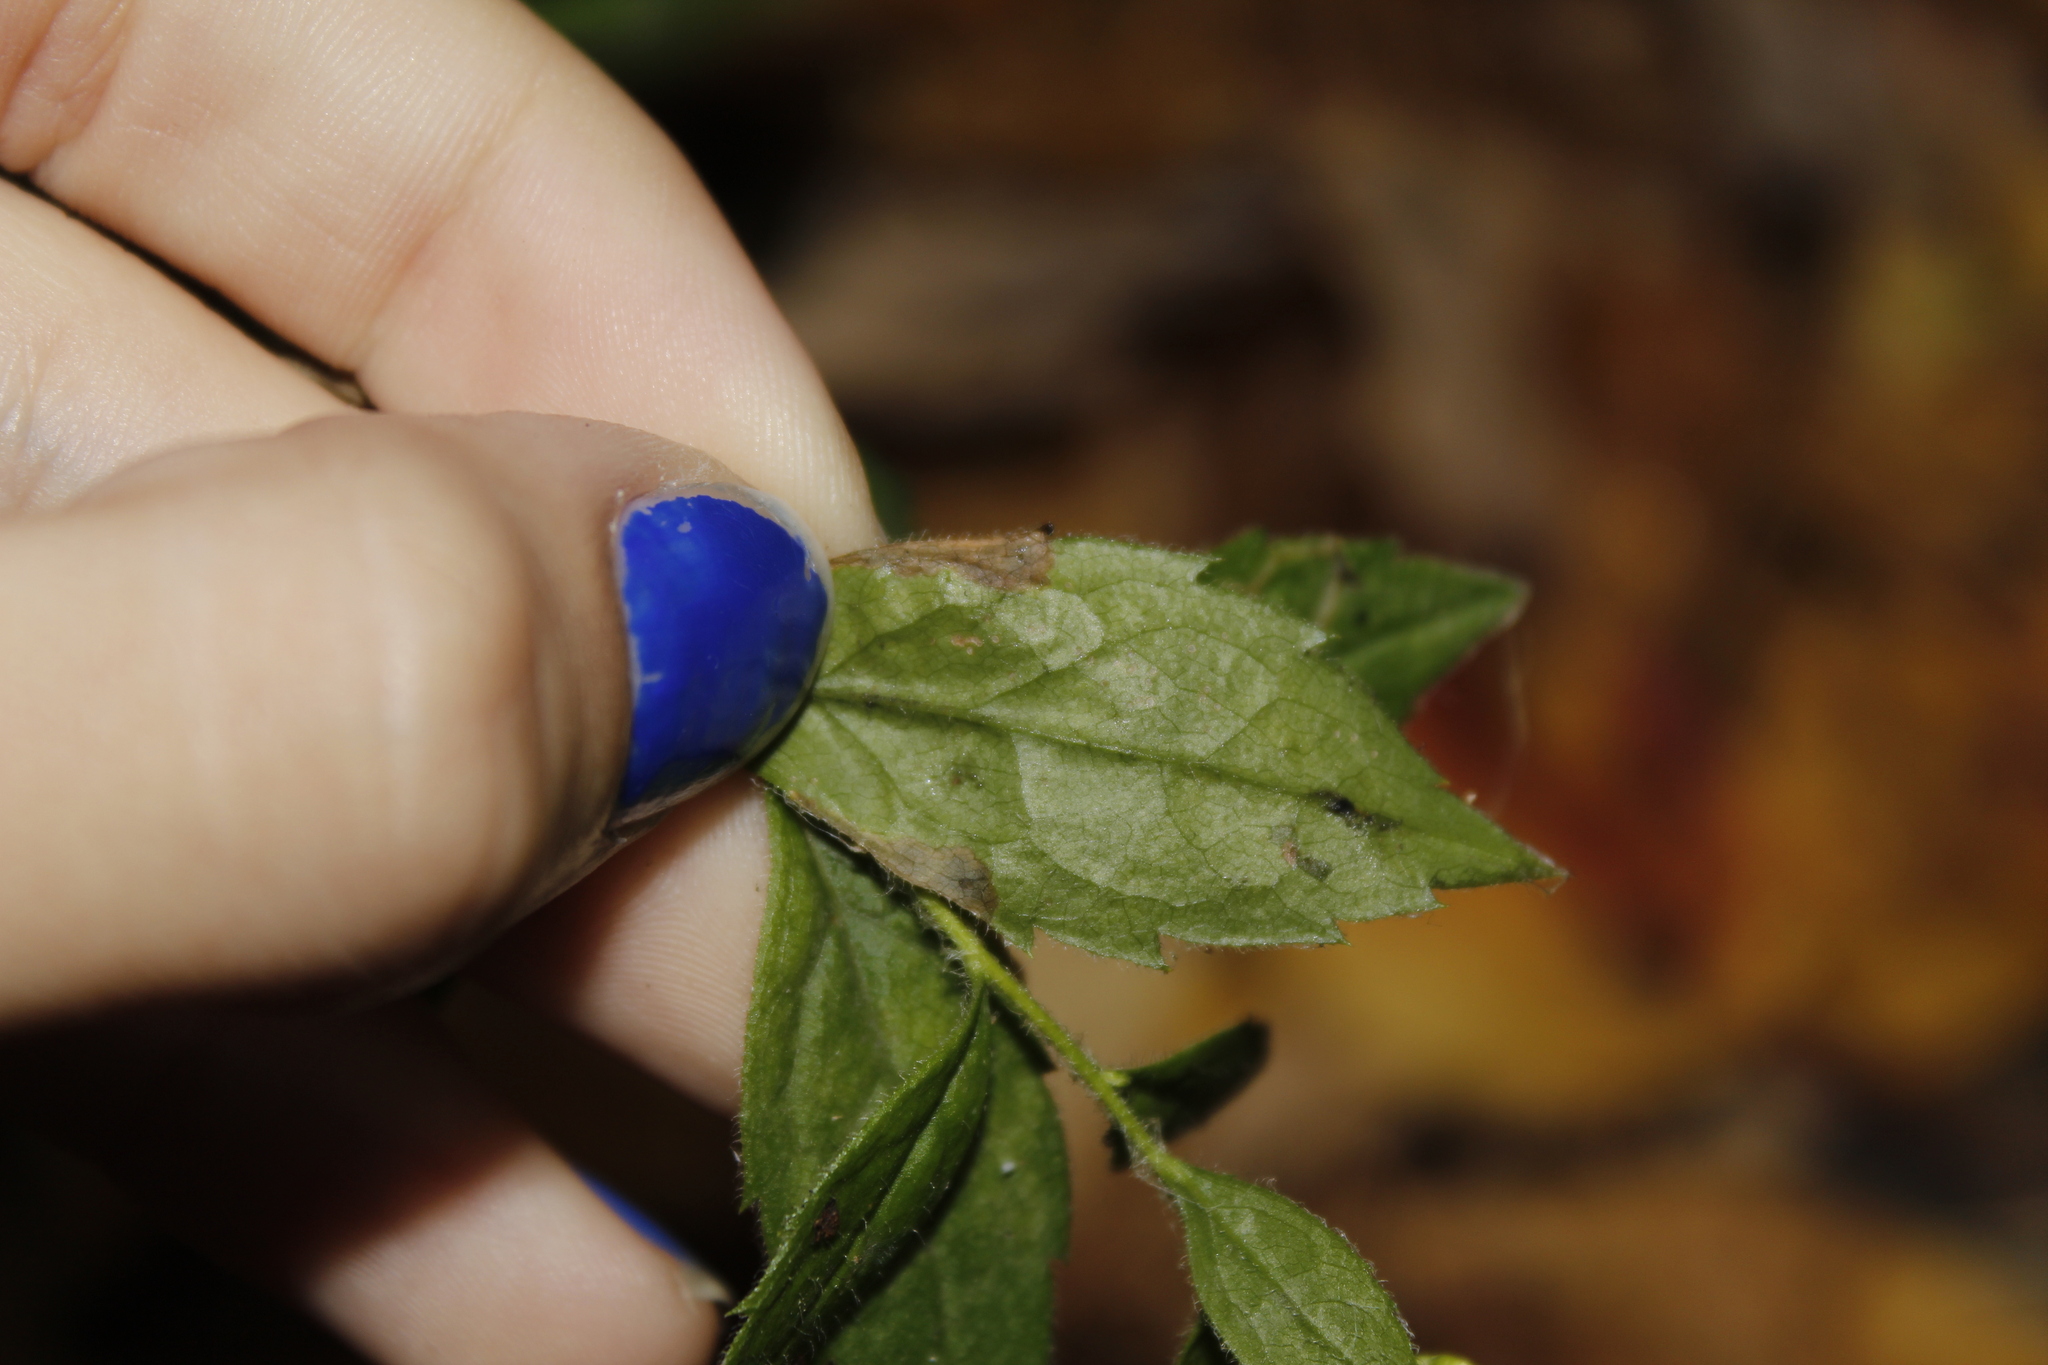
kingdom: Animalia
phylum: Arthropoda
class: Insecta
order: Diptera
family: Agromyzidae
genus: Nemorimyza
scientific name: Nemorimyza posticata
